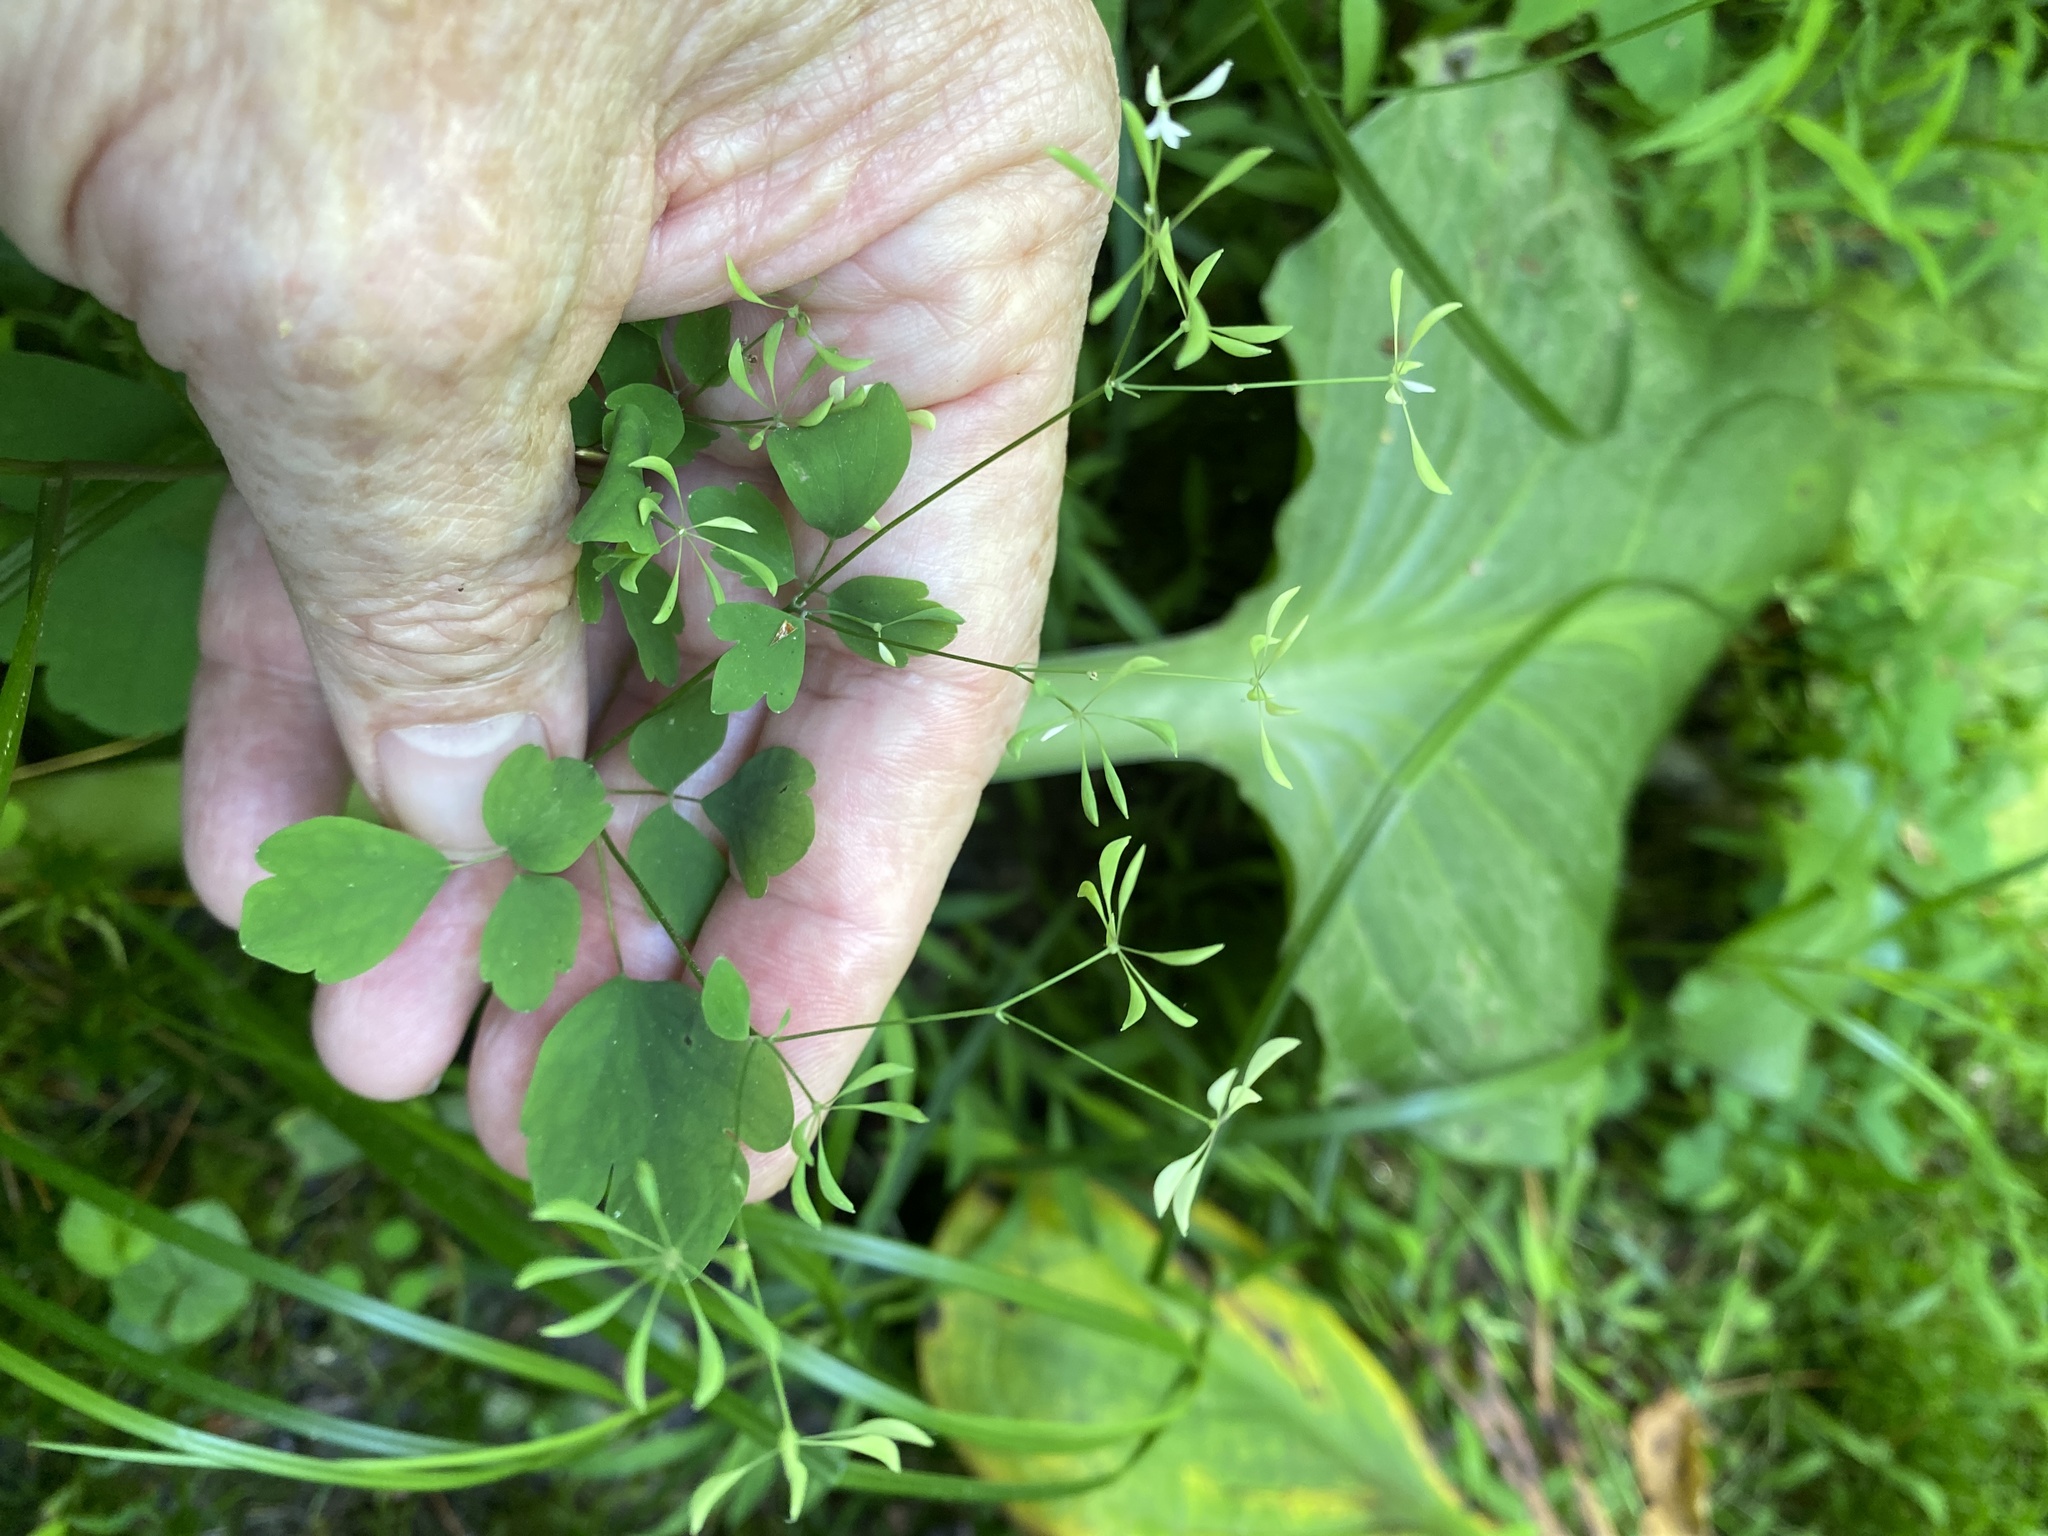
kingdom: Plantae
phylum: Tracheophyta
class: Magnoliopsida
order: Ranunculales
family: Ranunculaceae
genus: Thalictrum
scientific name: Thalictrum clavatum
